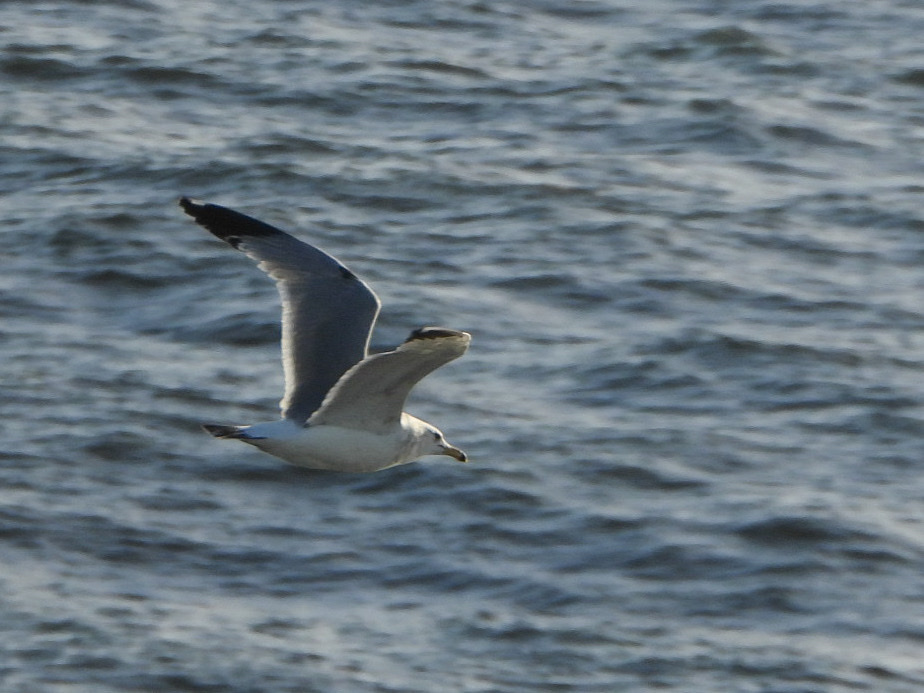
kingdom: Animalia
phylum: Chordata
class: Aves
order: Charadriiformes
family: Laridae
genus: Larus
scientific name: Larus californicus
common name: California gull
